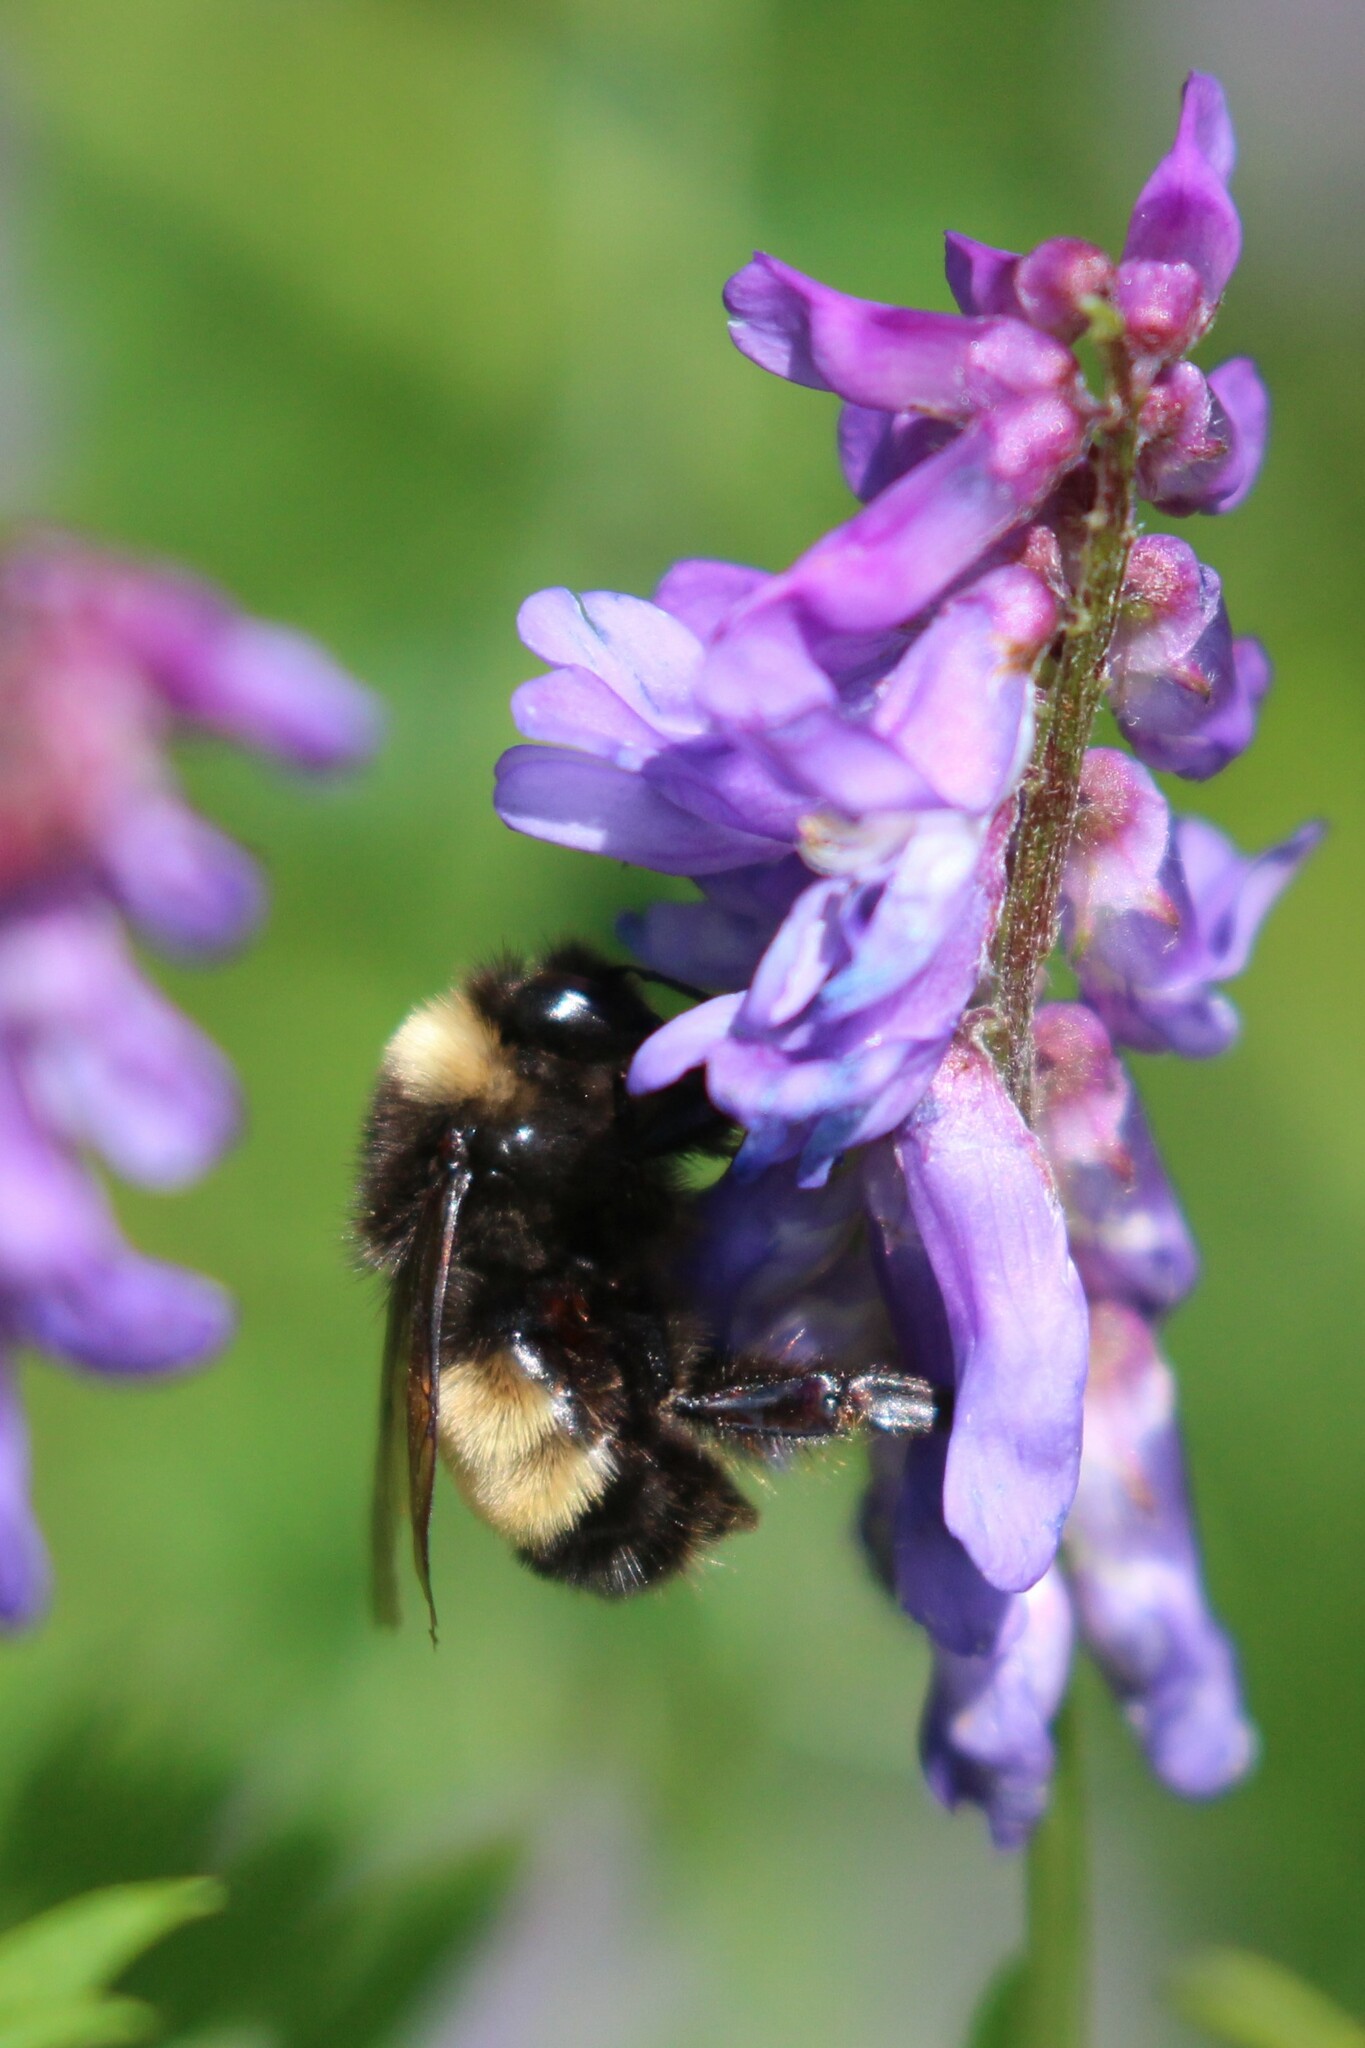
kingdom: Animalia
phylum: Arthropoda
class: Insecta
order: Hymenoptera
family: Apidae
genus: Bombus
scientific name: Bombus terricola
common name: Yellow-banded bumble bee
